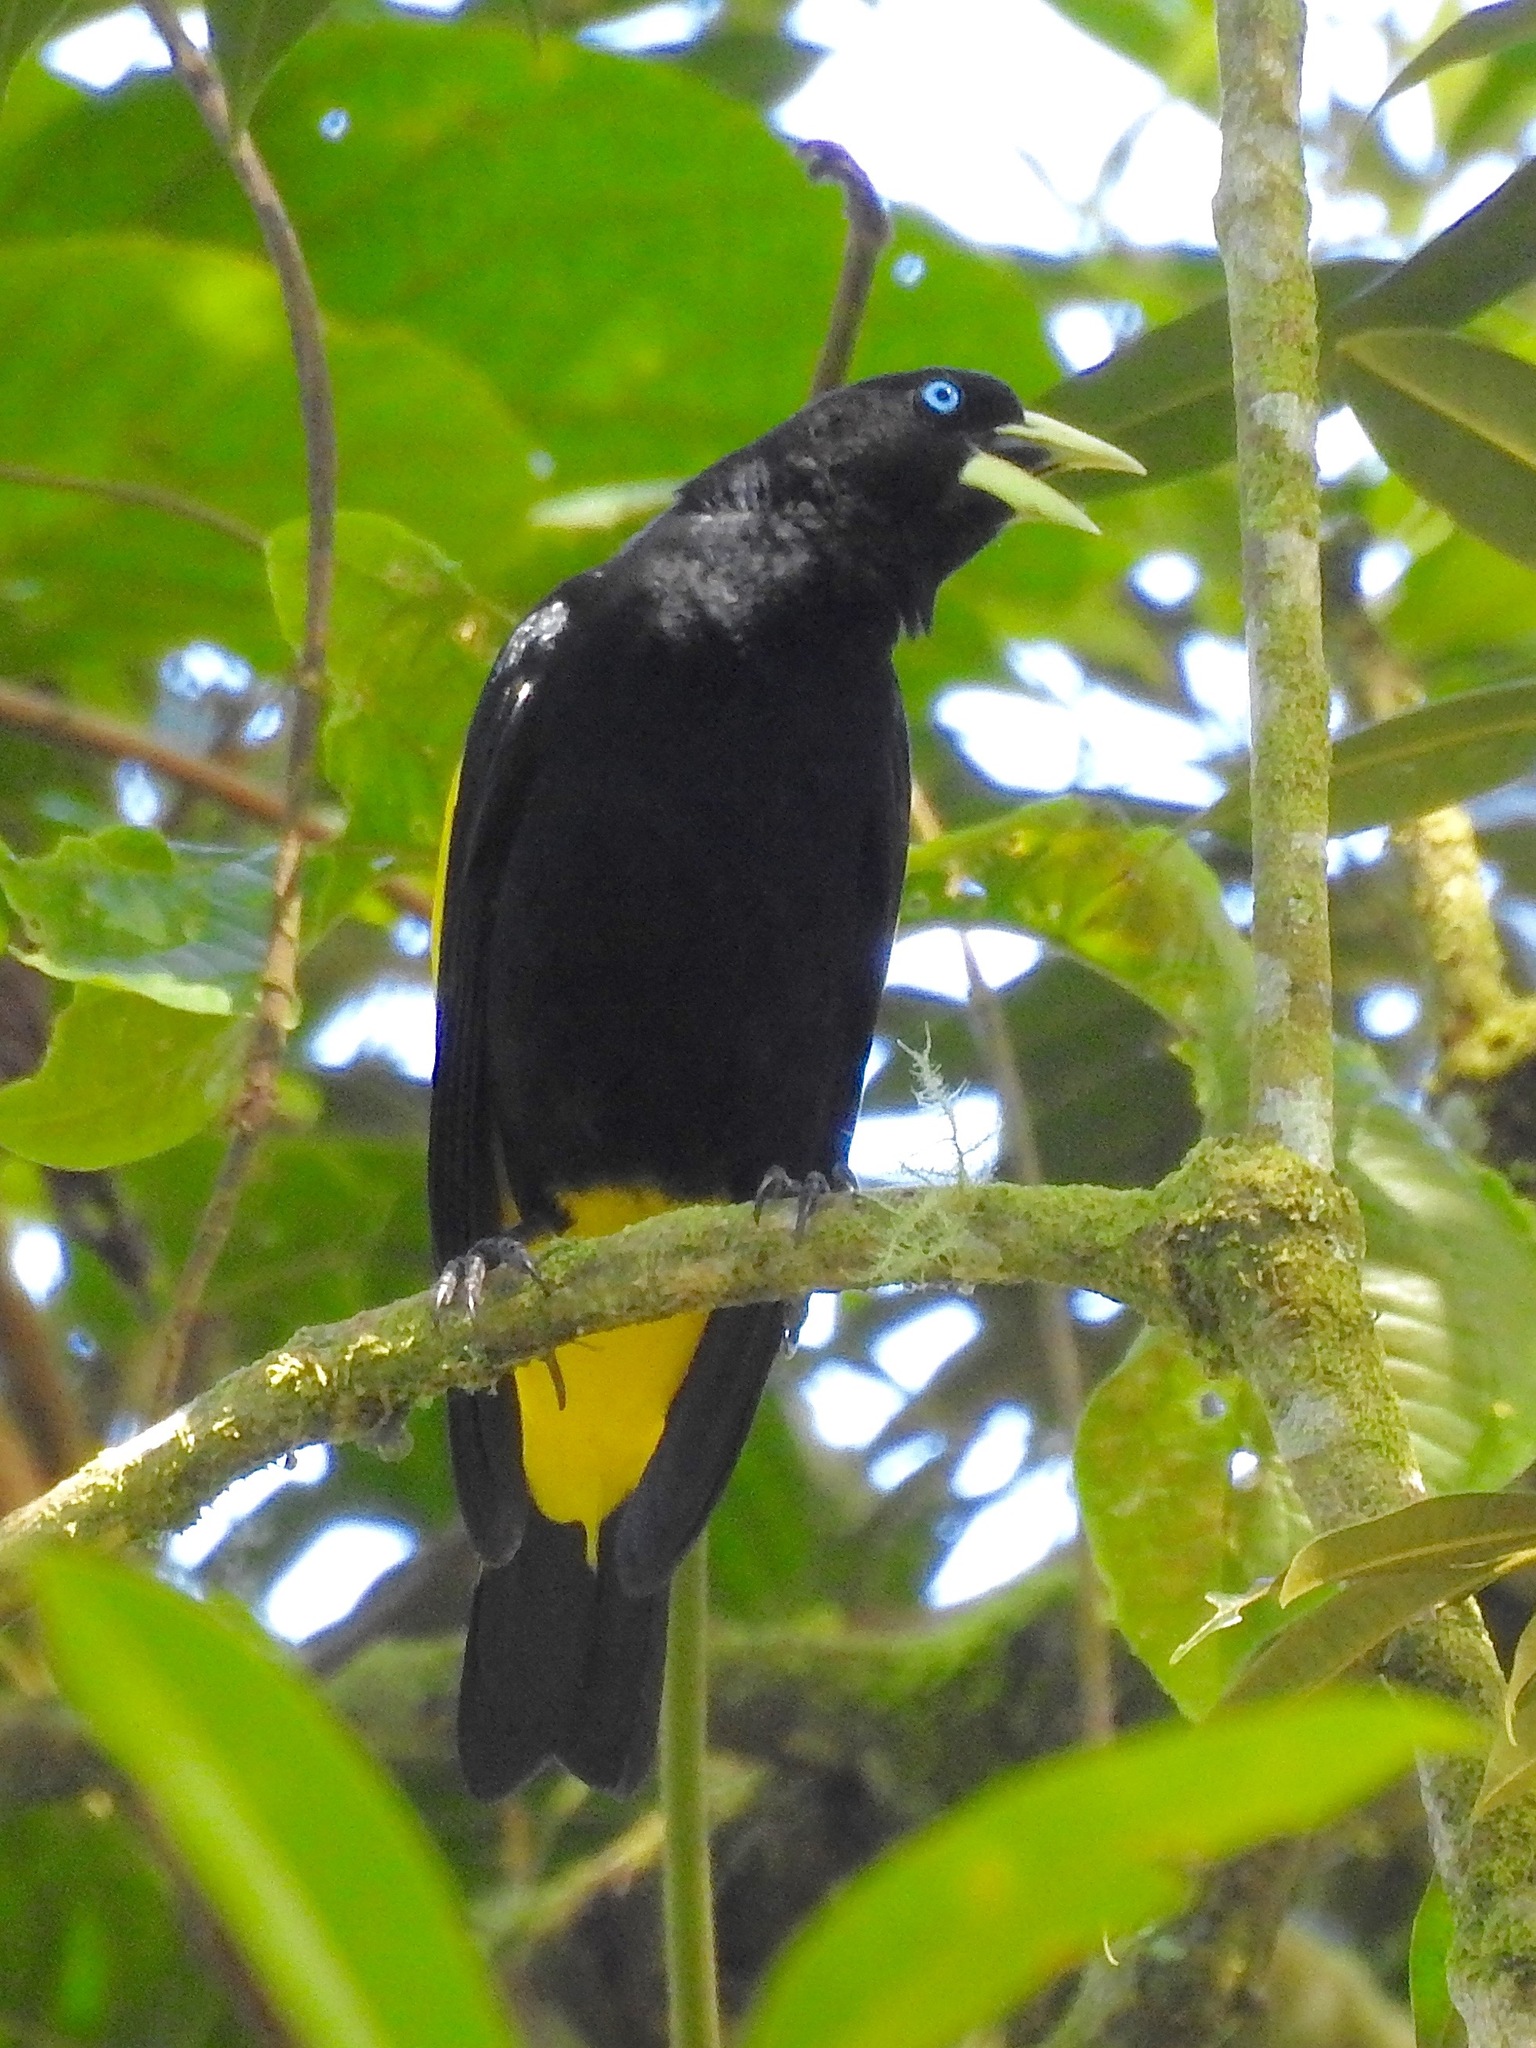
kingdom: Animalia
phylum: Chordata
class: Aves
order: Passeriformes
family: Icteridae
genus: Cacicus
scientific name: Cacicus cela
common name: Yellow-rumped cacique
